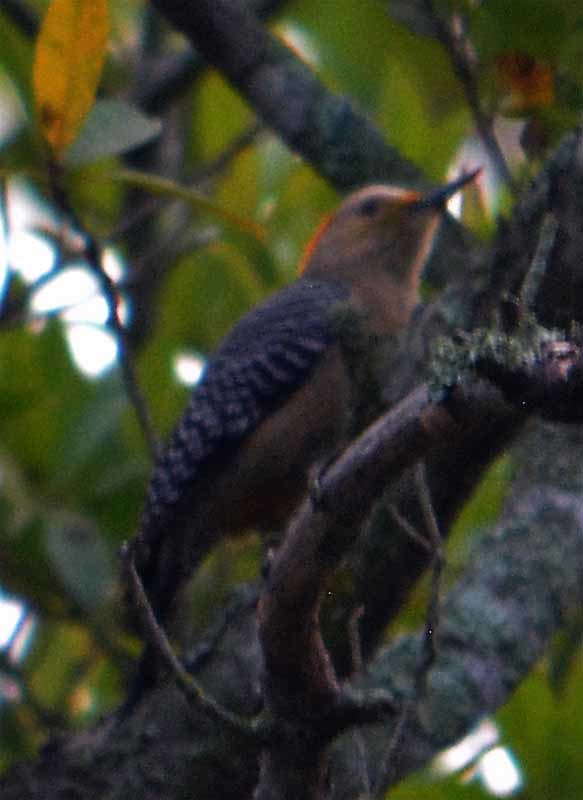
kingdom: Animalia
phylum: Chordata
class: Aves
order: Piciformes
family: Picidae
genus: Melanerpes
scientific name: Melanerpes aurifrons
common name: Golden-fronted woodpecker
